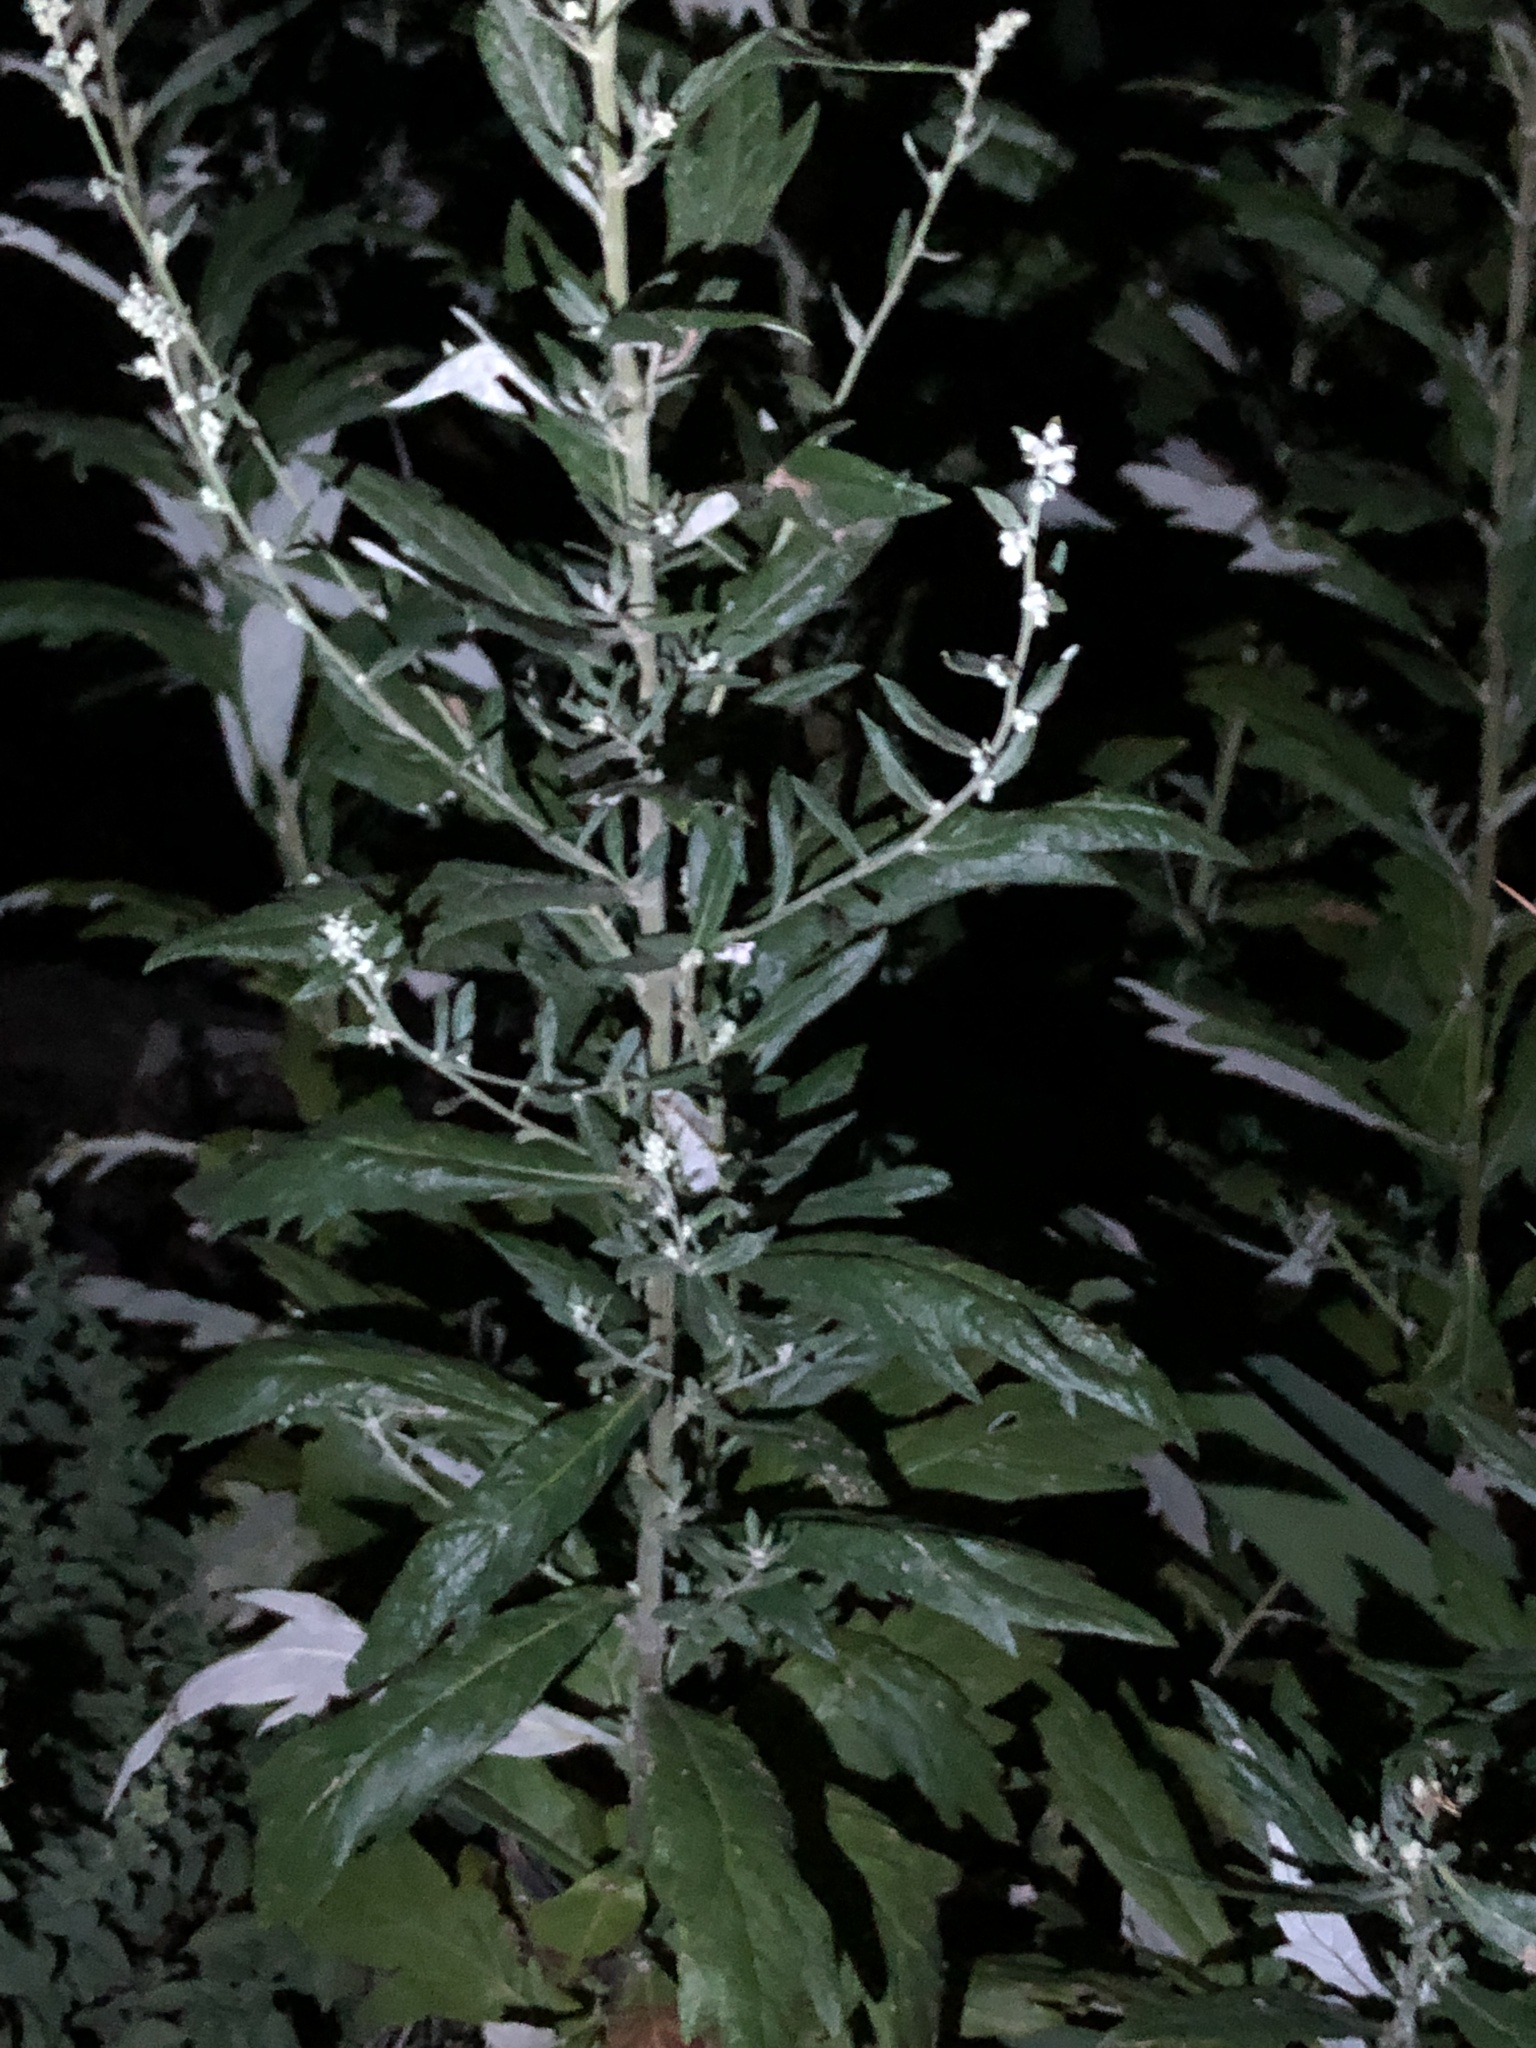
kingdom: Plantae
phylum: Tracheophyta
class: Magnoliopsida
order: Asterales
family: Asteraceae
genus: Artemisia
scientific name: Artemisia douglasiana
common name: Northwest mugwort
